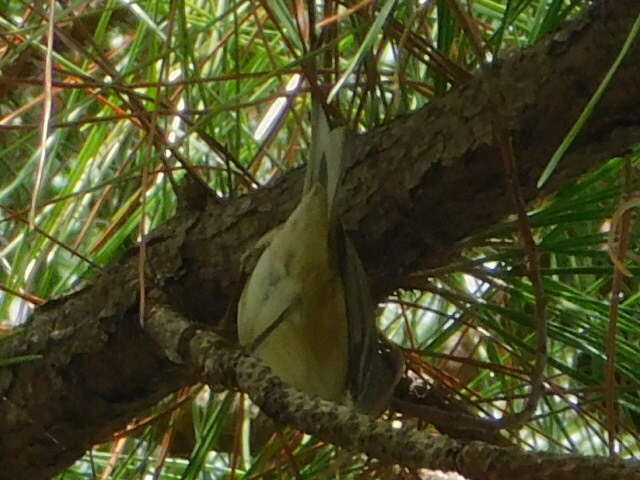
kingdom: Animalia
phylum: Chordata
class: Aves
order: Passeriformes
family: Parulidae
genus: Setophaga
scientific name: Setophaga pinus
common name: Pine warbler
